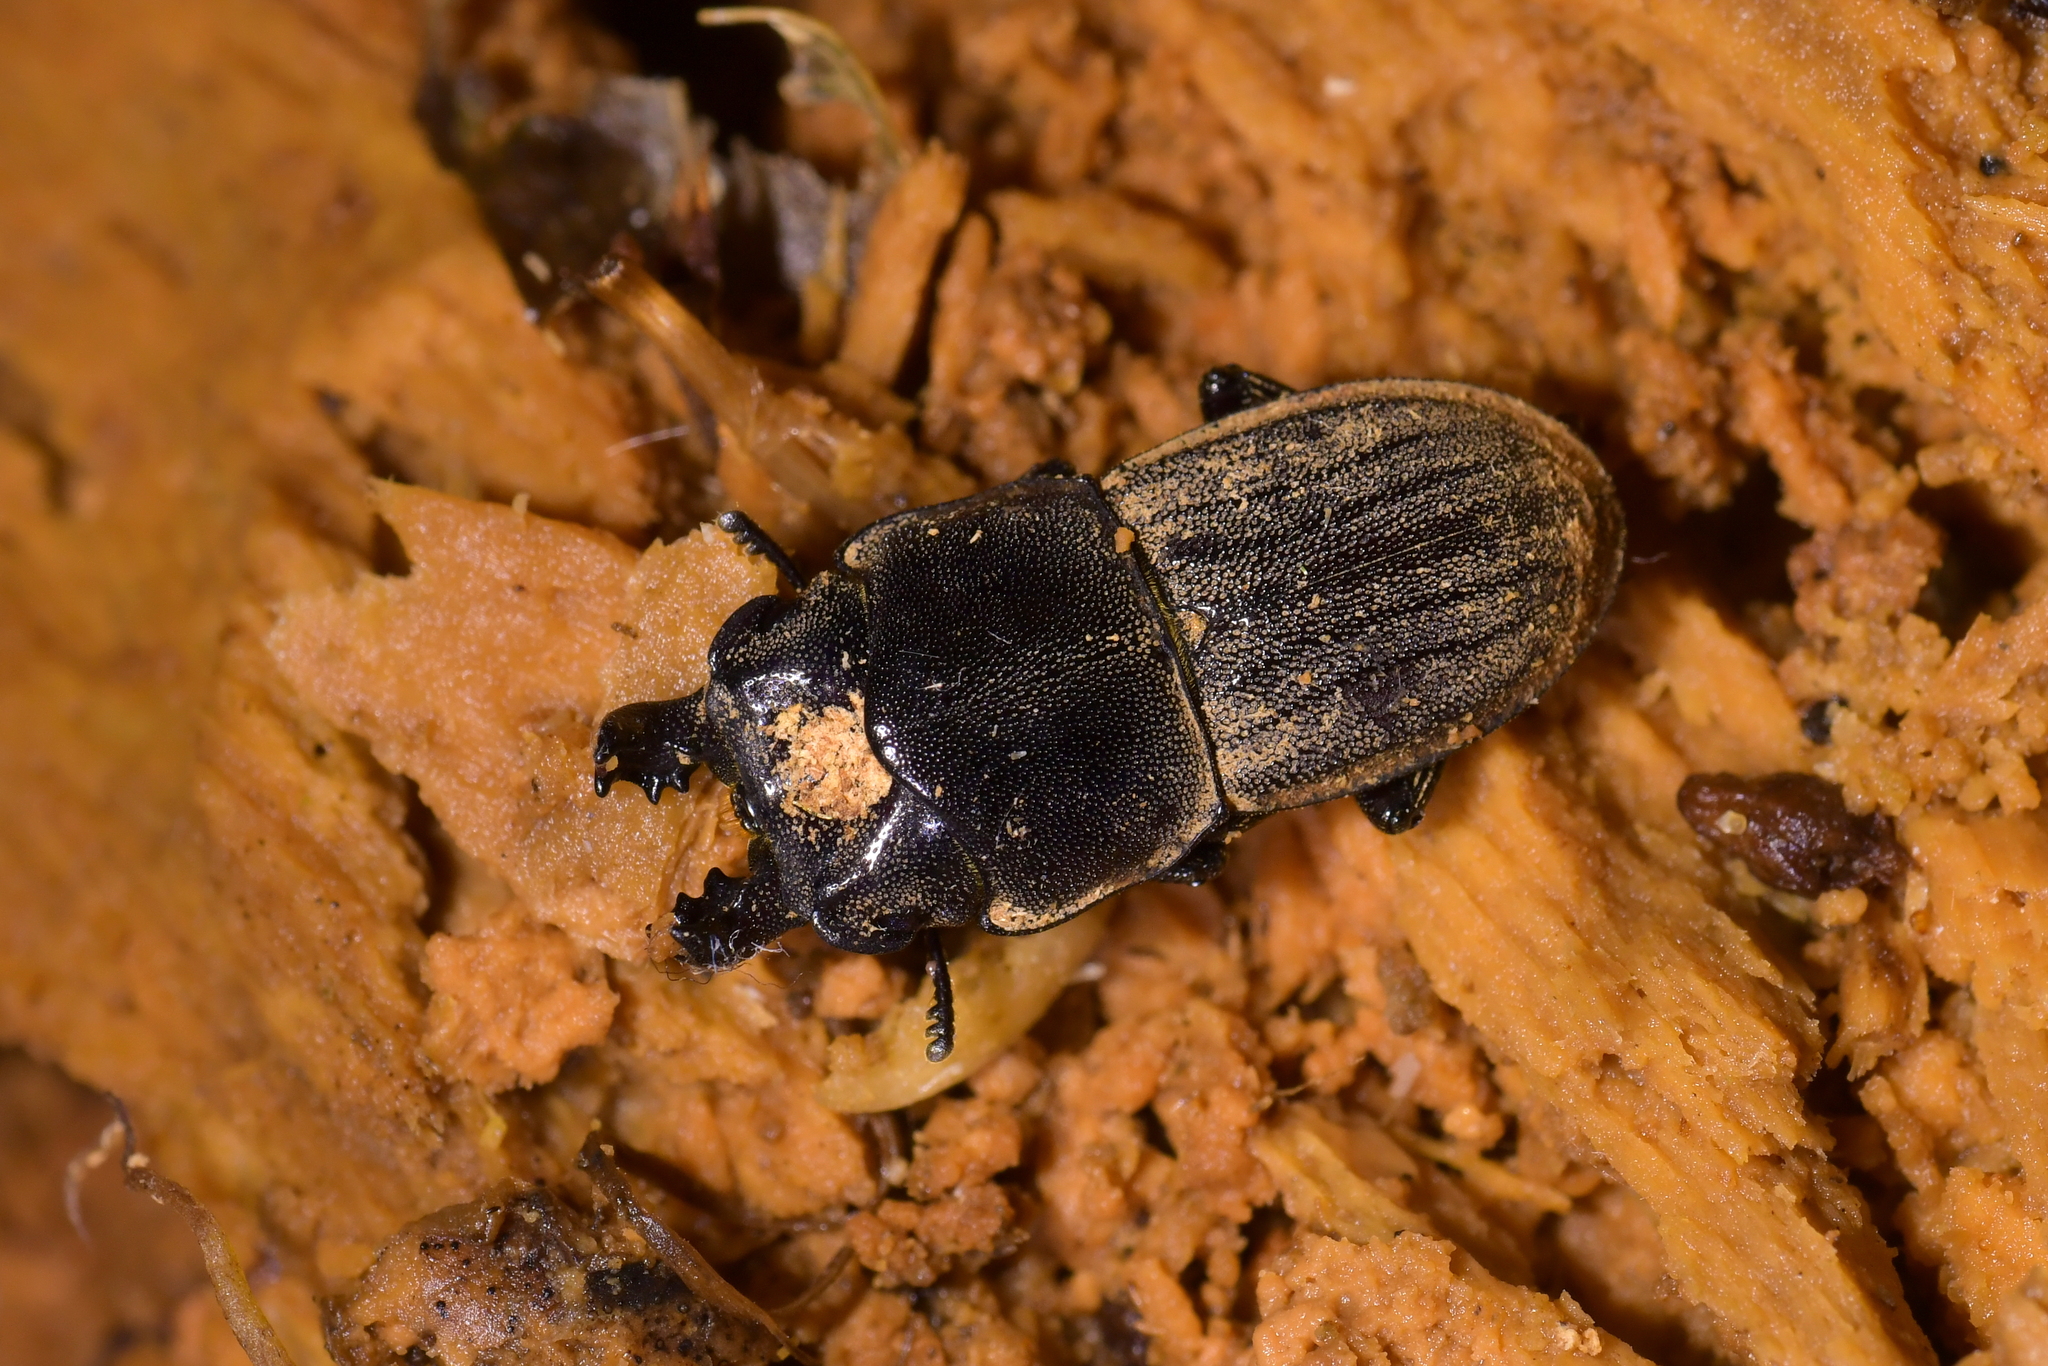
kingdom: Animalia
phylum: Arthropoda
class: Insecta
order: Coleoptera
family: Lucanidae
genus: Geodorcus
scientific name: Geodorcus novaezealandiae
